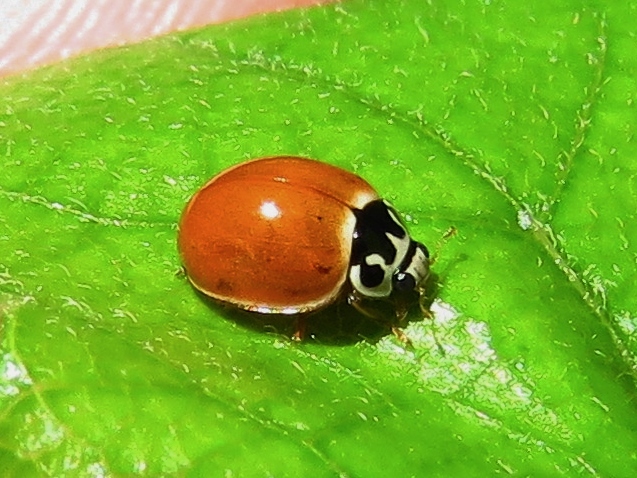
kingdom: Animalia
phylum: Arthropoda
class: Insecta
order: Coleoptera
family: Coccinellidae
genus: Cycloneda
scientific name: Cycloneda munda
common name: Polished lady beetle
